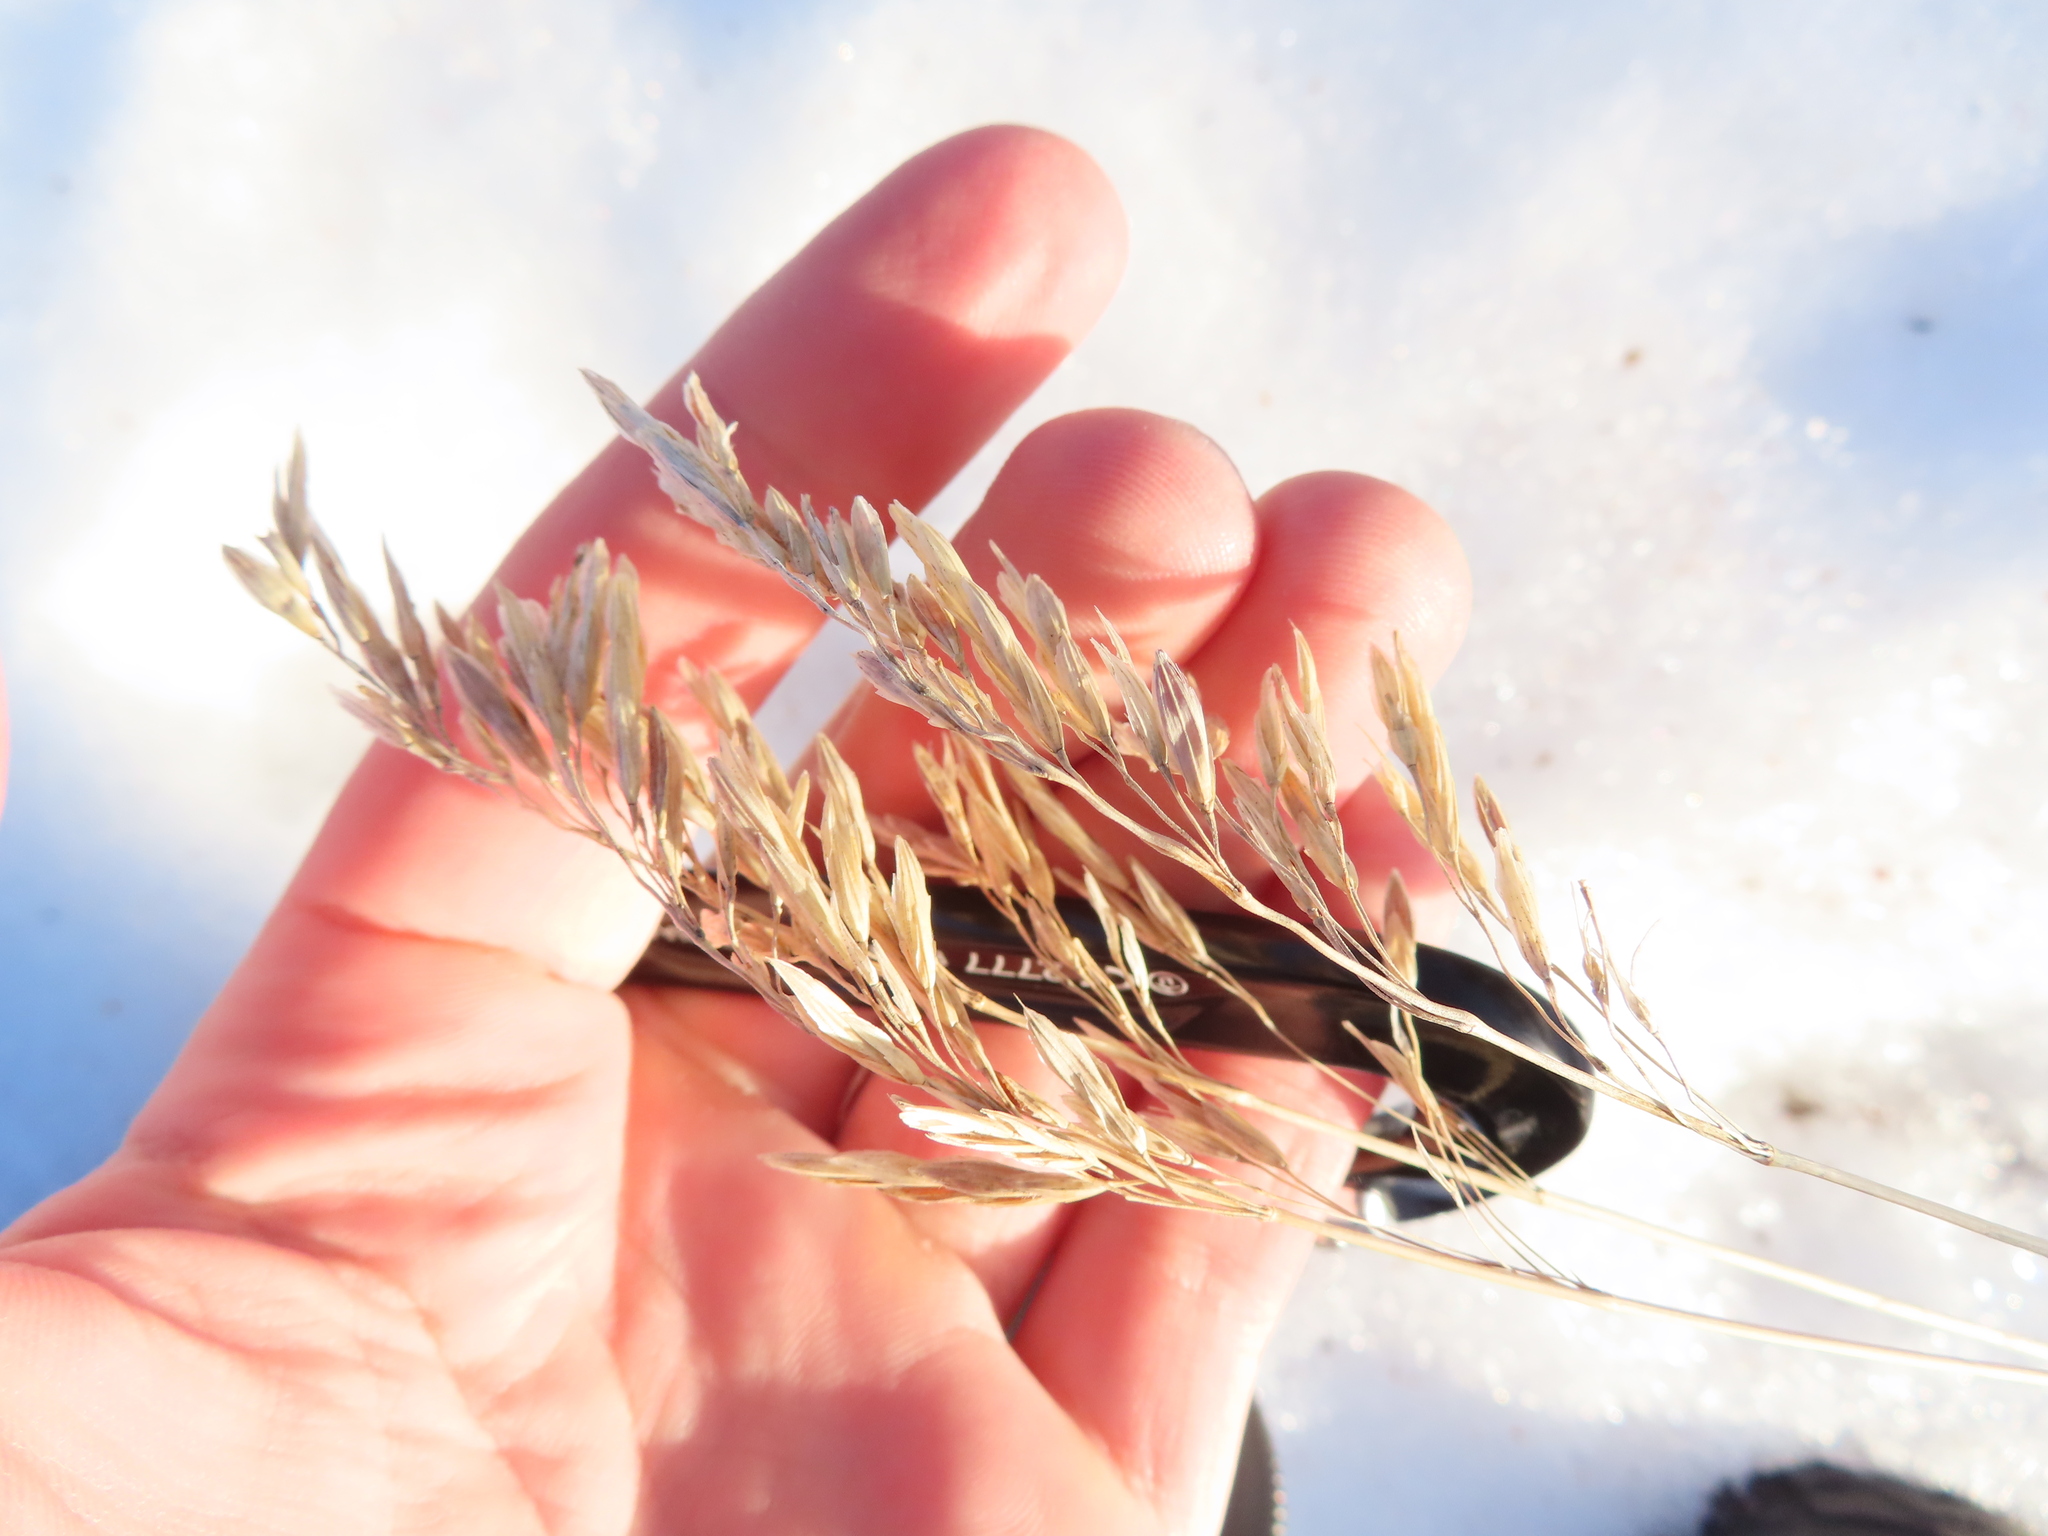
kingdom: Plantae
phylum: Tracheophyta
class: Liliopsida
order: Poales
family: Poaceae
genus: Bromus
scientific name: Bromus inermis
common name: Smooth brome
